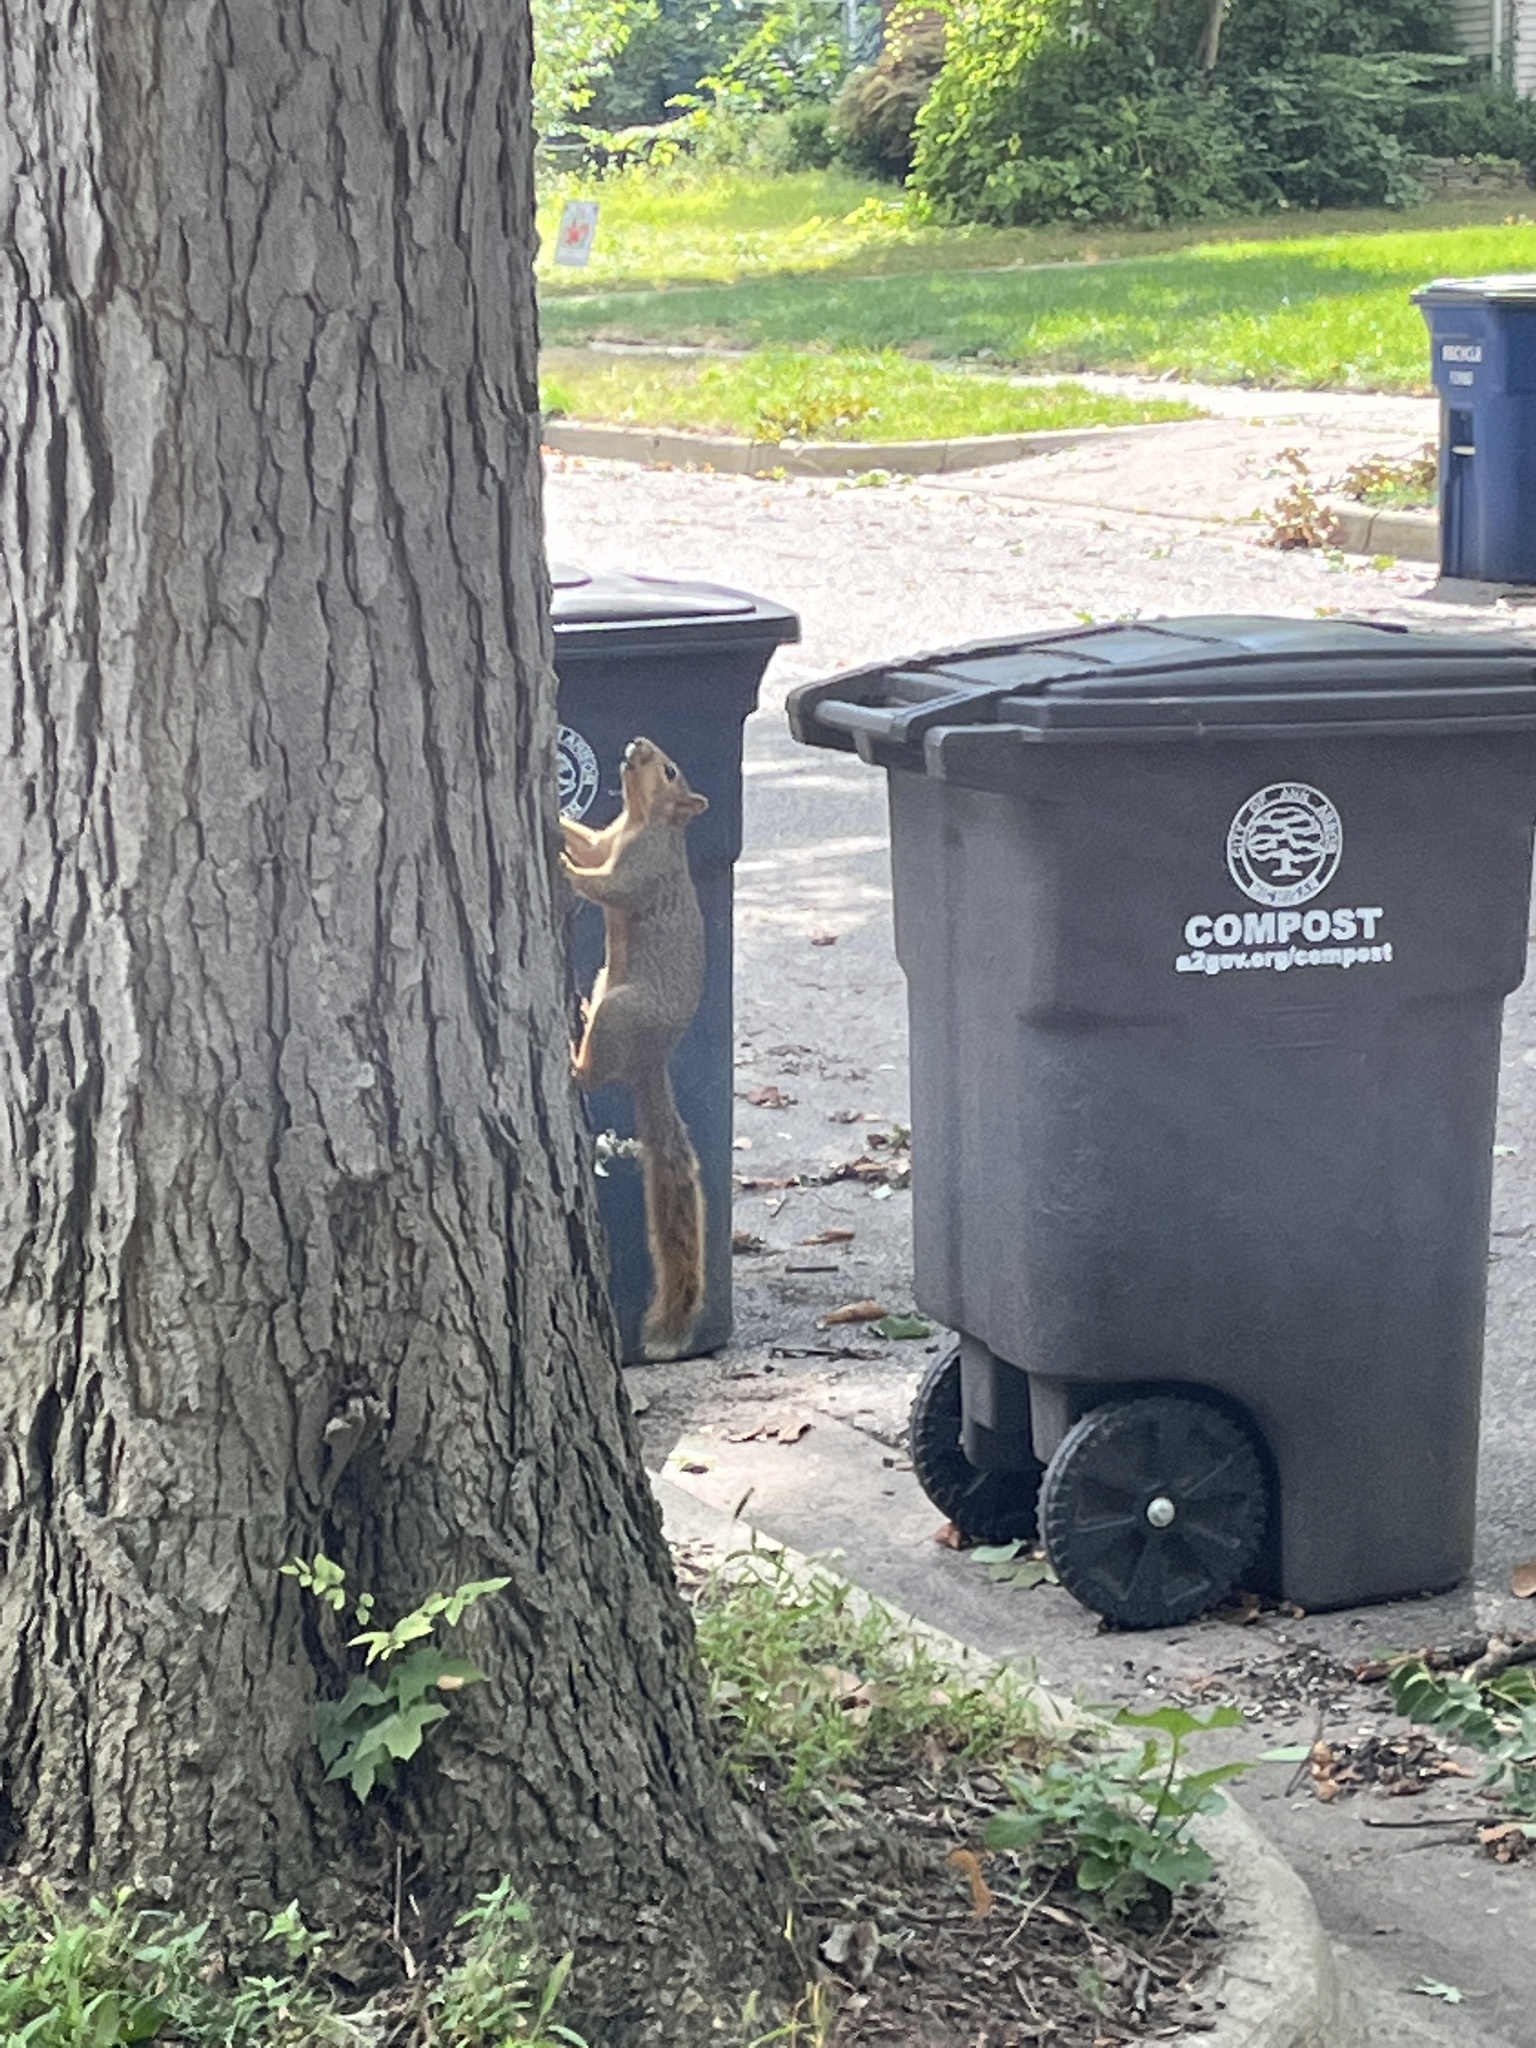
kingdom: Animalia
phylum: Chordata
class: Mammalia
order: Rodentia
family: Sciuridae
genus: Sciurus
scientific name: Sciurus niger
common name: Fox squirrel
